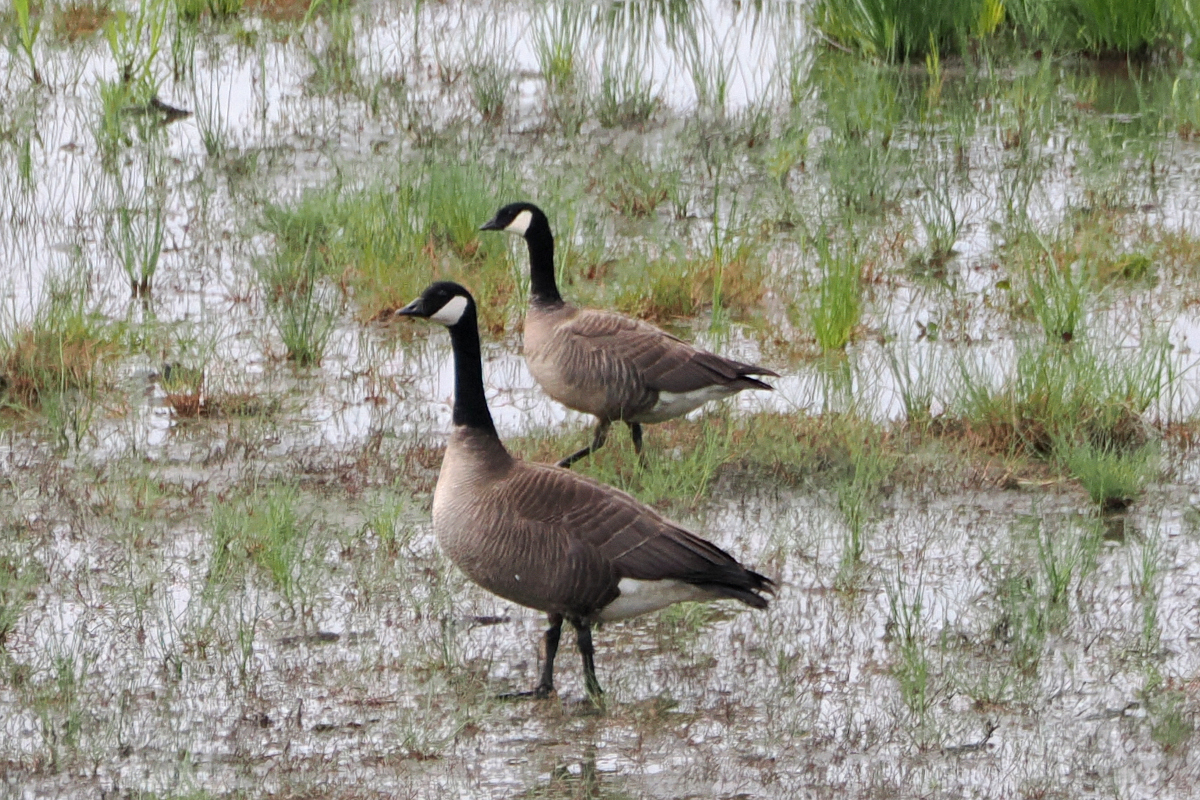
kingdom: Animalia
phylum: Chordata
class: Aves
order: Anseriformes
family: Anatidae
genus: Branta
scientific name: Branta canadensis
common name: Canada goose
